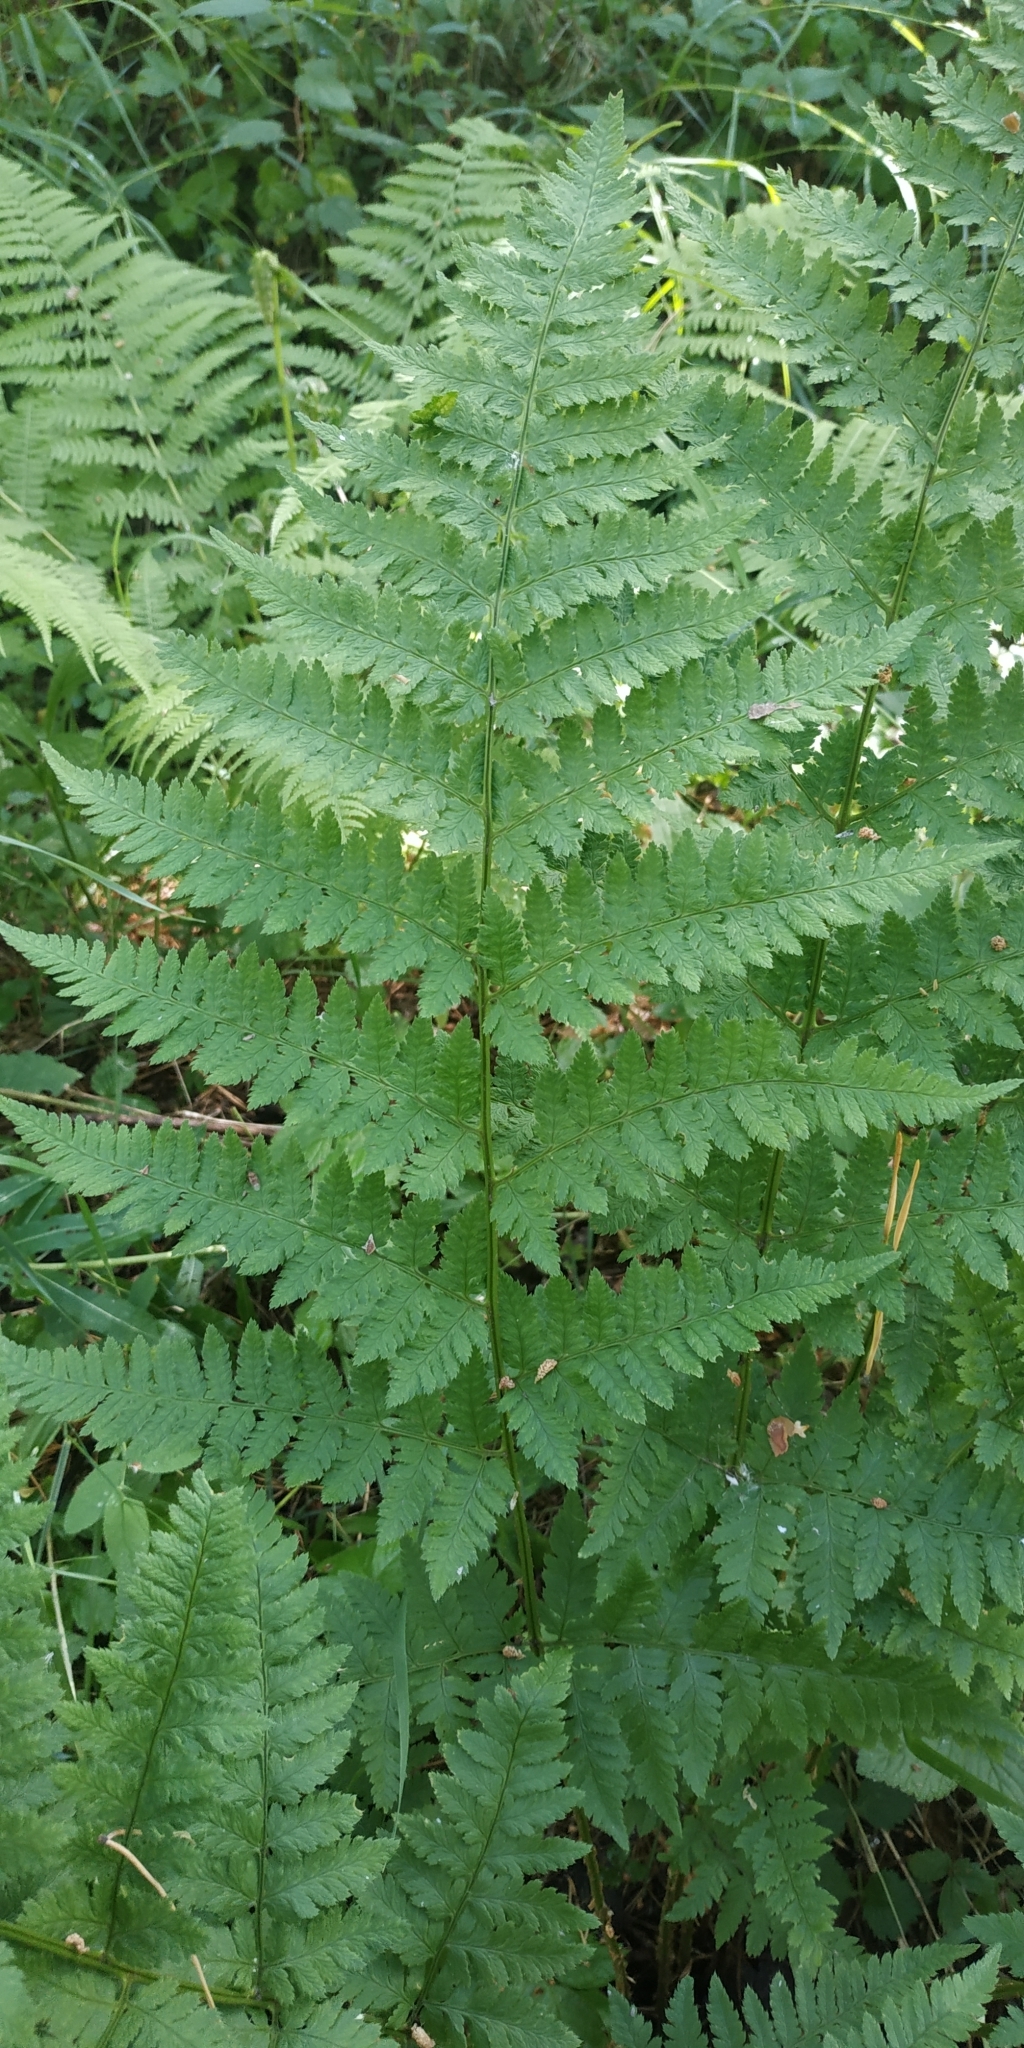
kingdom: Plantae
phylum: Tracheophyta
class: Polypodiopsida
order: Polypodiales
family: Dryopteridaceae
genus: Dryopteris
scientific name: Dryopteris carthusiana
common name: Narrow buckler-fern
